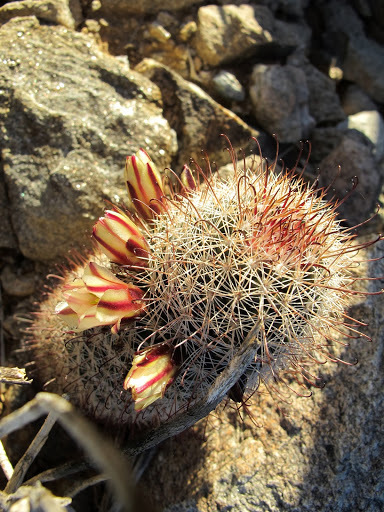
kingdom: Plantae
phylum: Tracheophyta
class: Magnoliopsida
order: Caryophyllales
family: Cactaceae
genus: Cochemiea
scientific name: Cochemiea dioica
